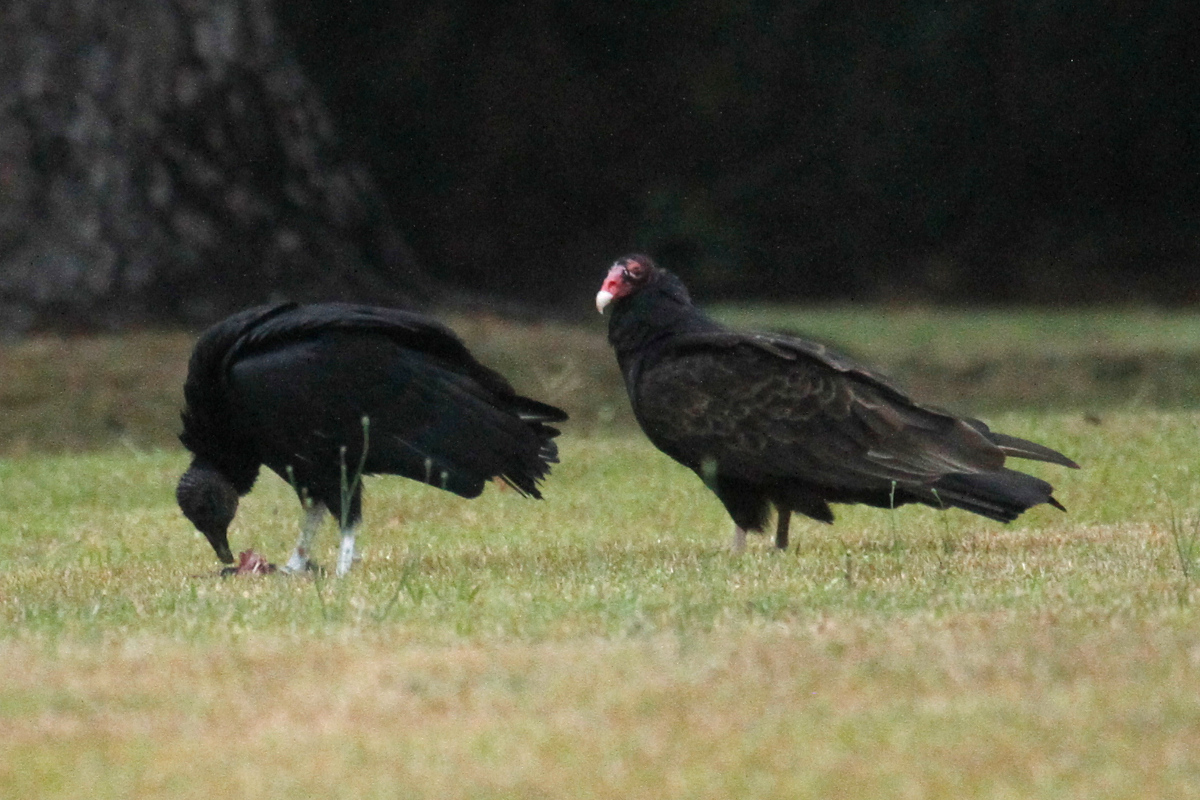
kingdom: Animalia
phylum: Chordata
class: Aves
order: Accipitriformes
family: Cathartidae
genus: Cathartes
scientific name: Cathartes aura
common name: Turkey vulture
